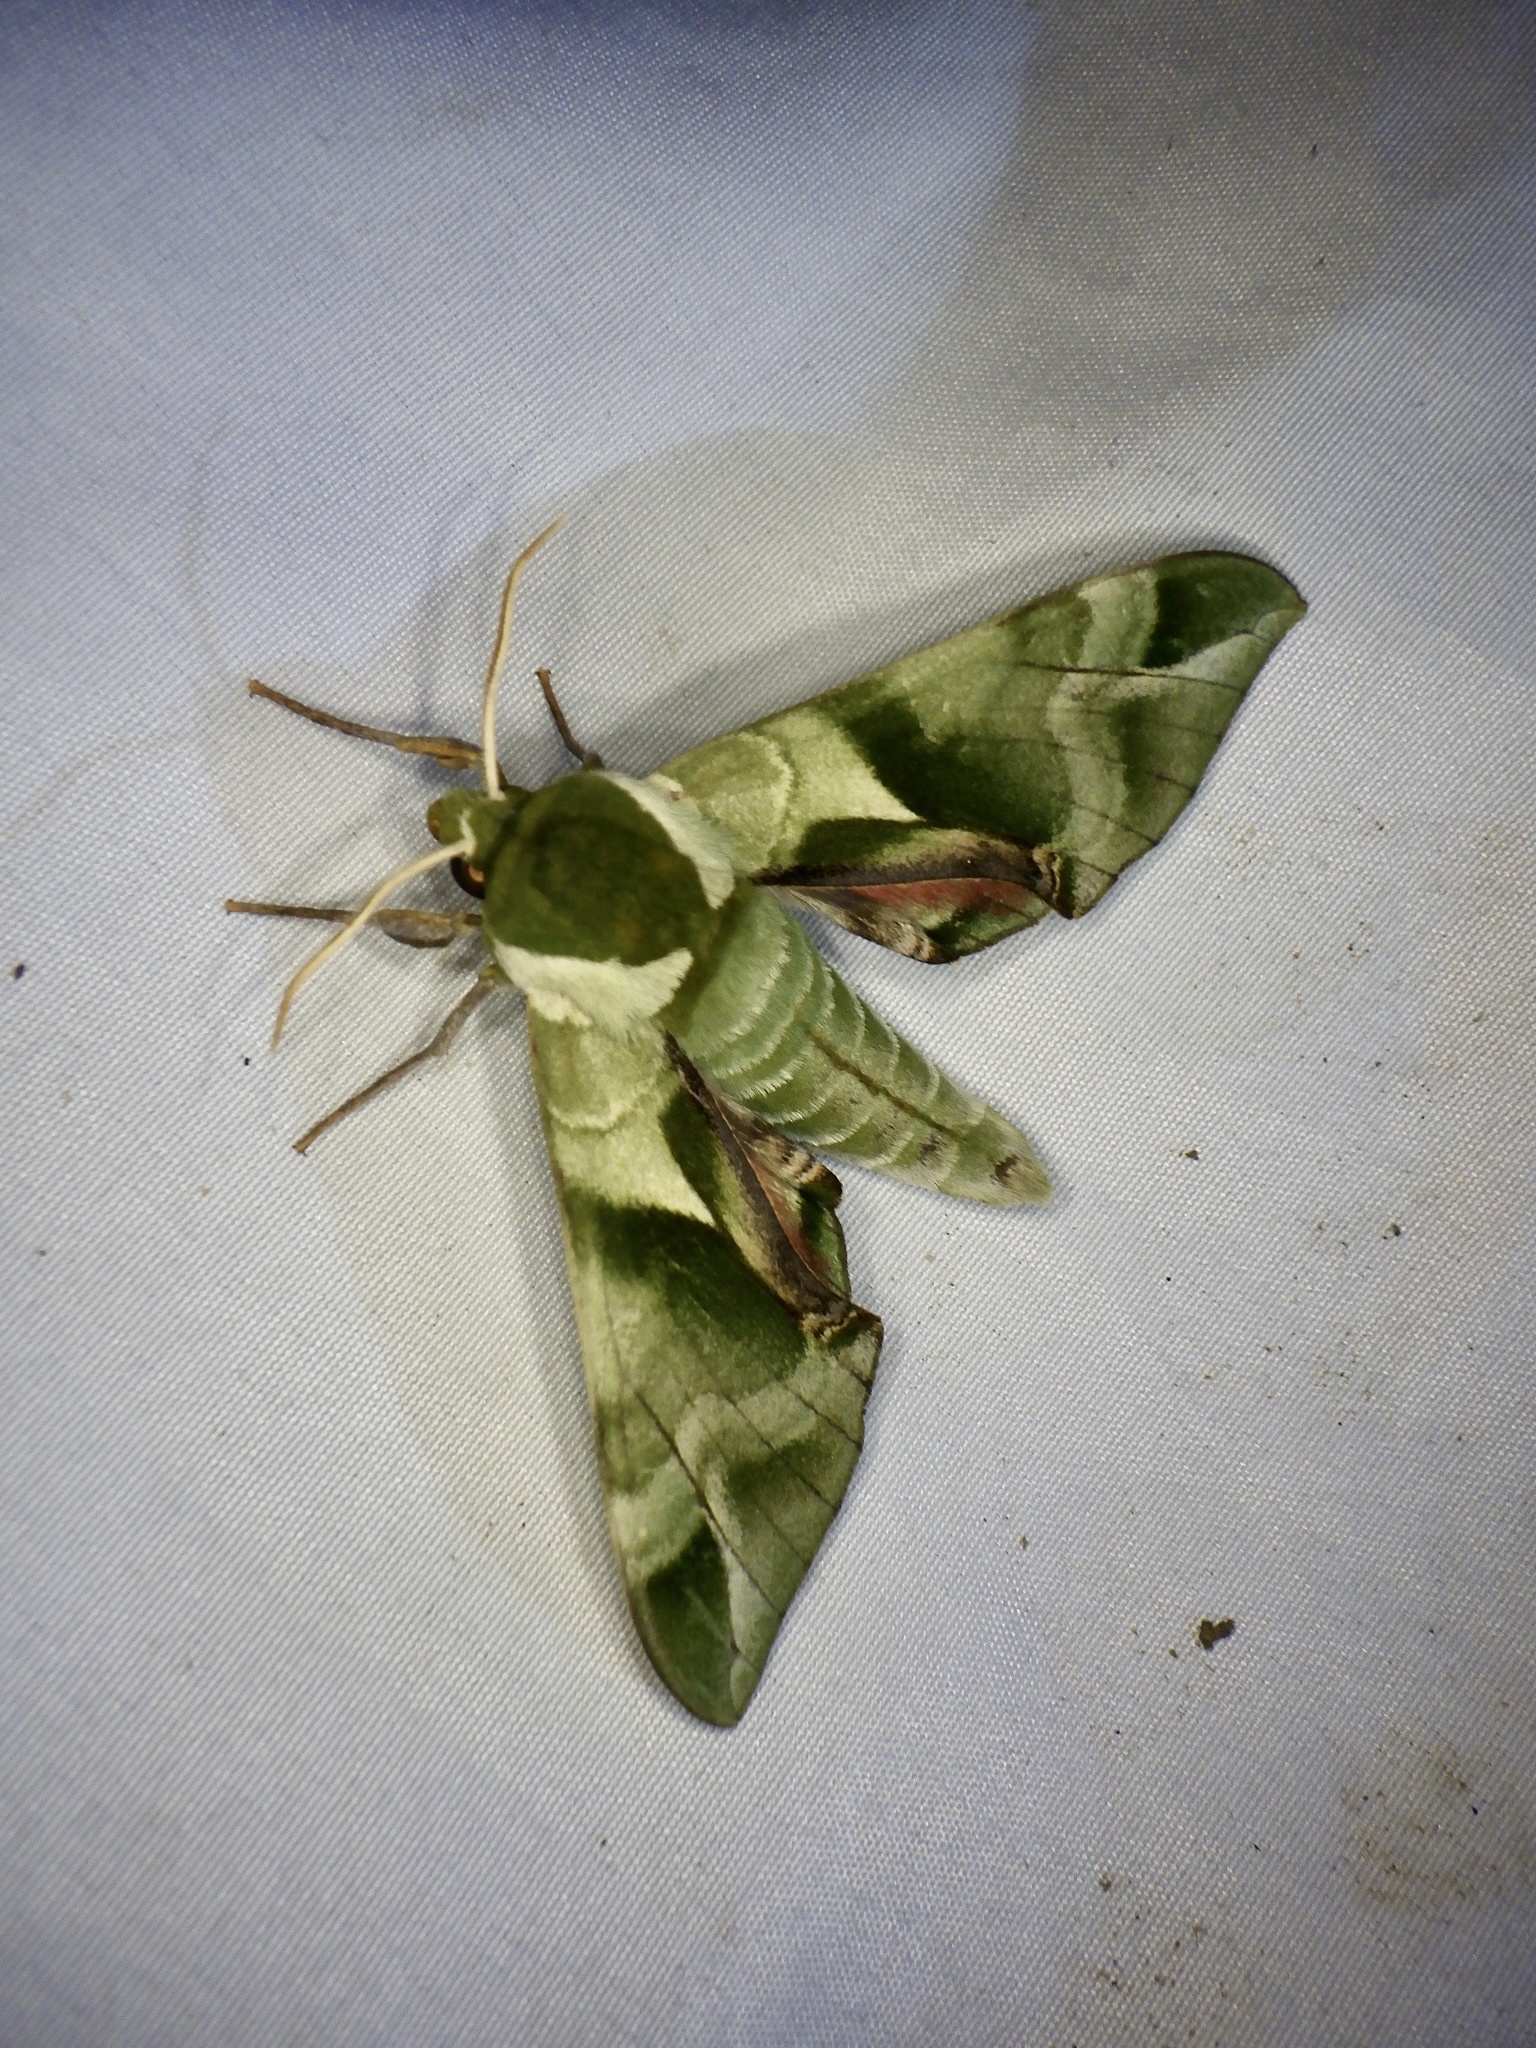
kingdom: Animalia
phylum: Arthropoda
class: Insecta
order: Lepidoptera
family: Sphingidae
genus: Callambulyx
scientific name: Callambulyx tatarinovii
